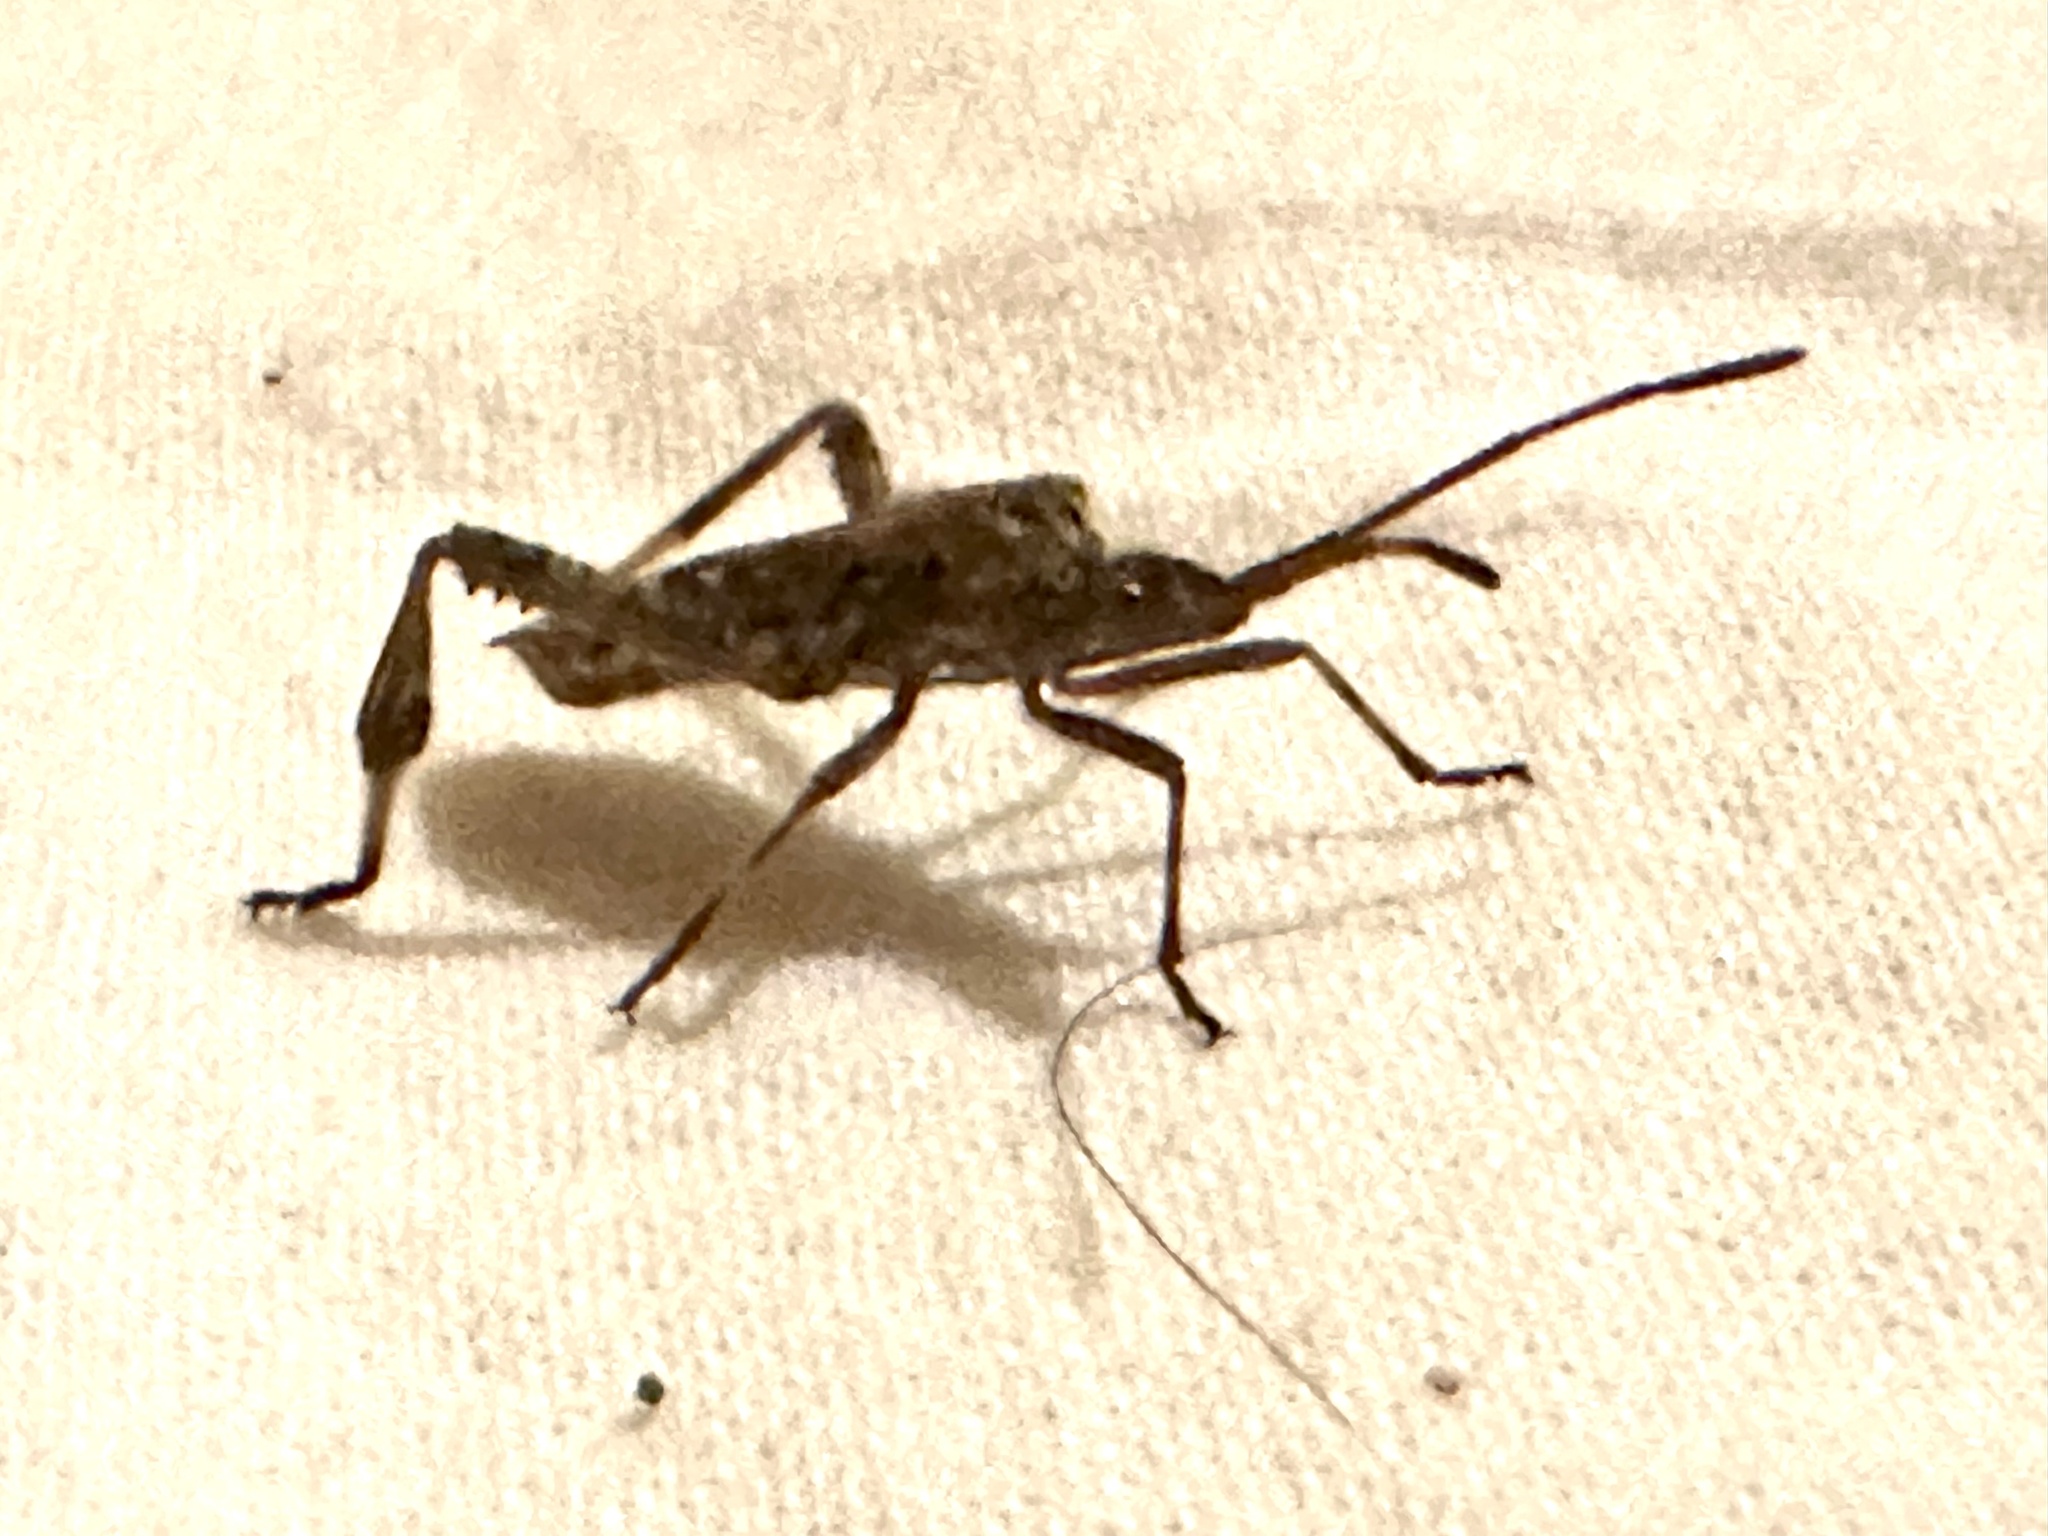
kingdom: Animalia
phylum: Arthropoda
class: Insecta
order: Hemiptera
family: Coreidae
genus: Leptoglossus
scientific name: Leptoglossus occidentalis
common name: Western conifer-seed bug
